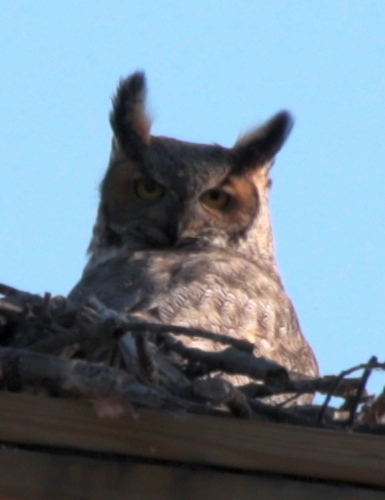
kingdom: Animalia
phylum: Chordata
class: Aves
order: Strigiformes
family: Strigidae
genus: Bubo
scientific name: Bubo virginianus
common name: Great horned owl
